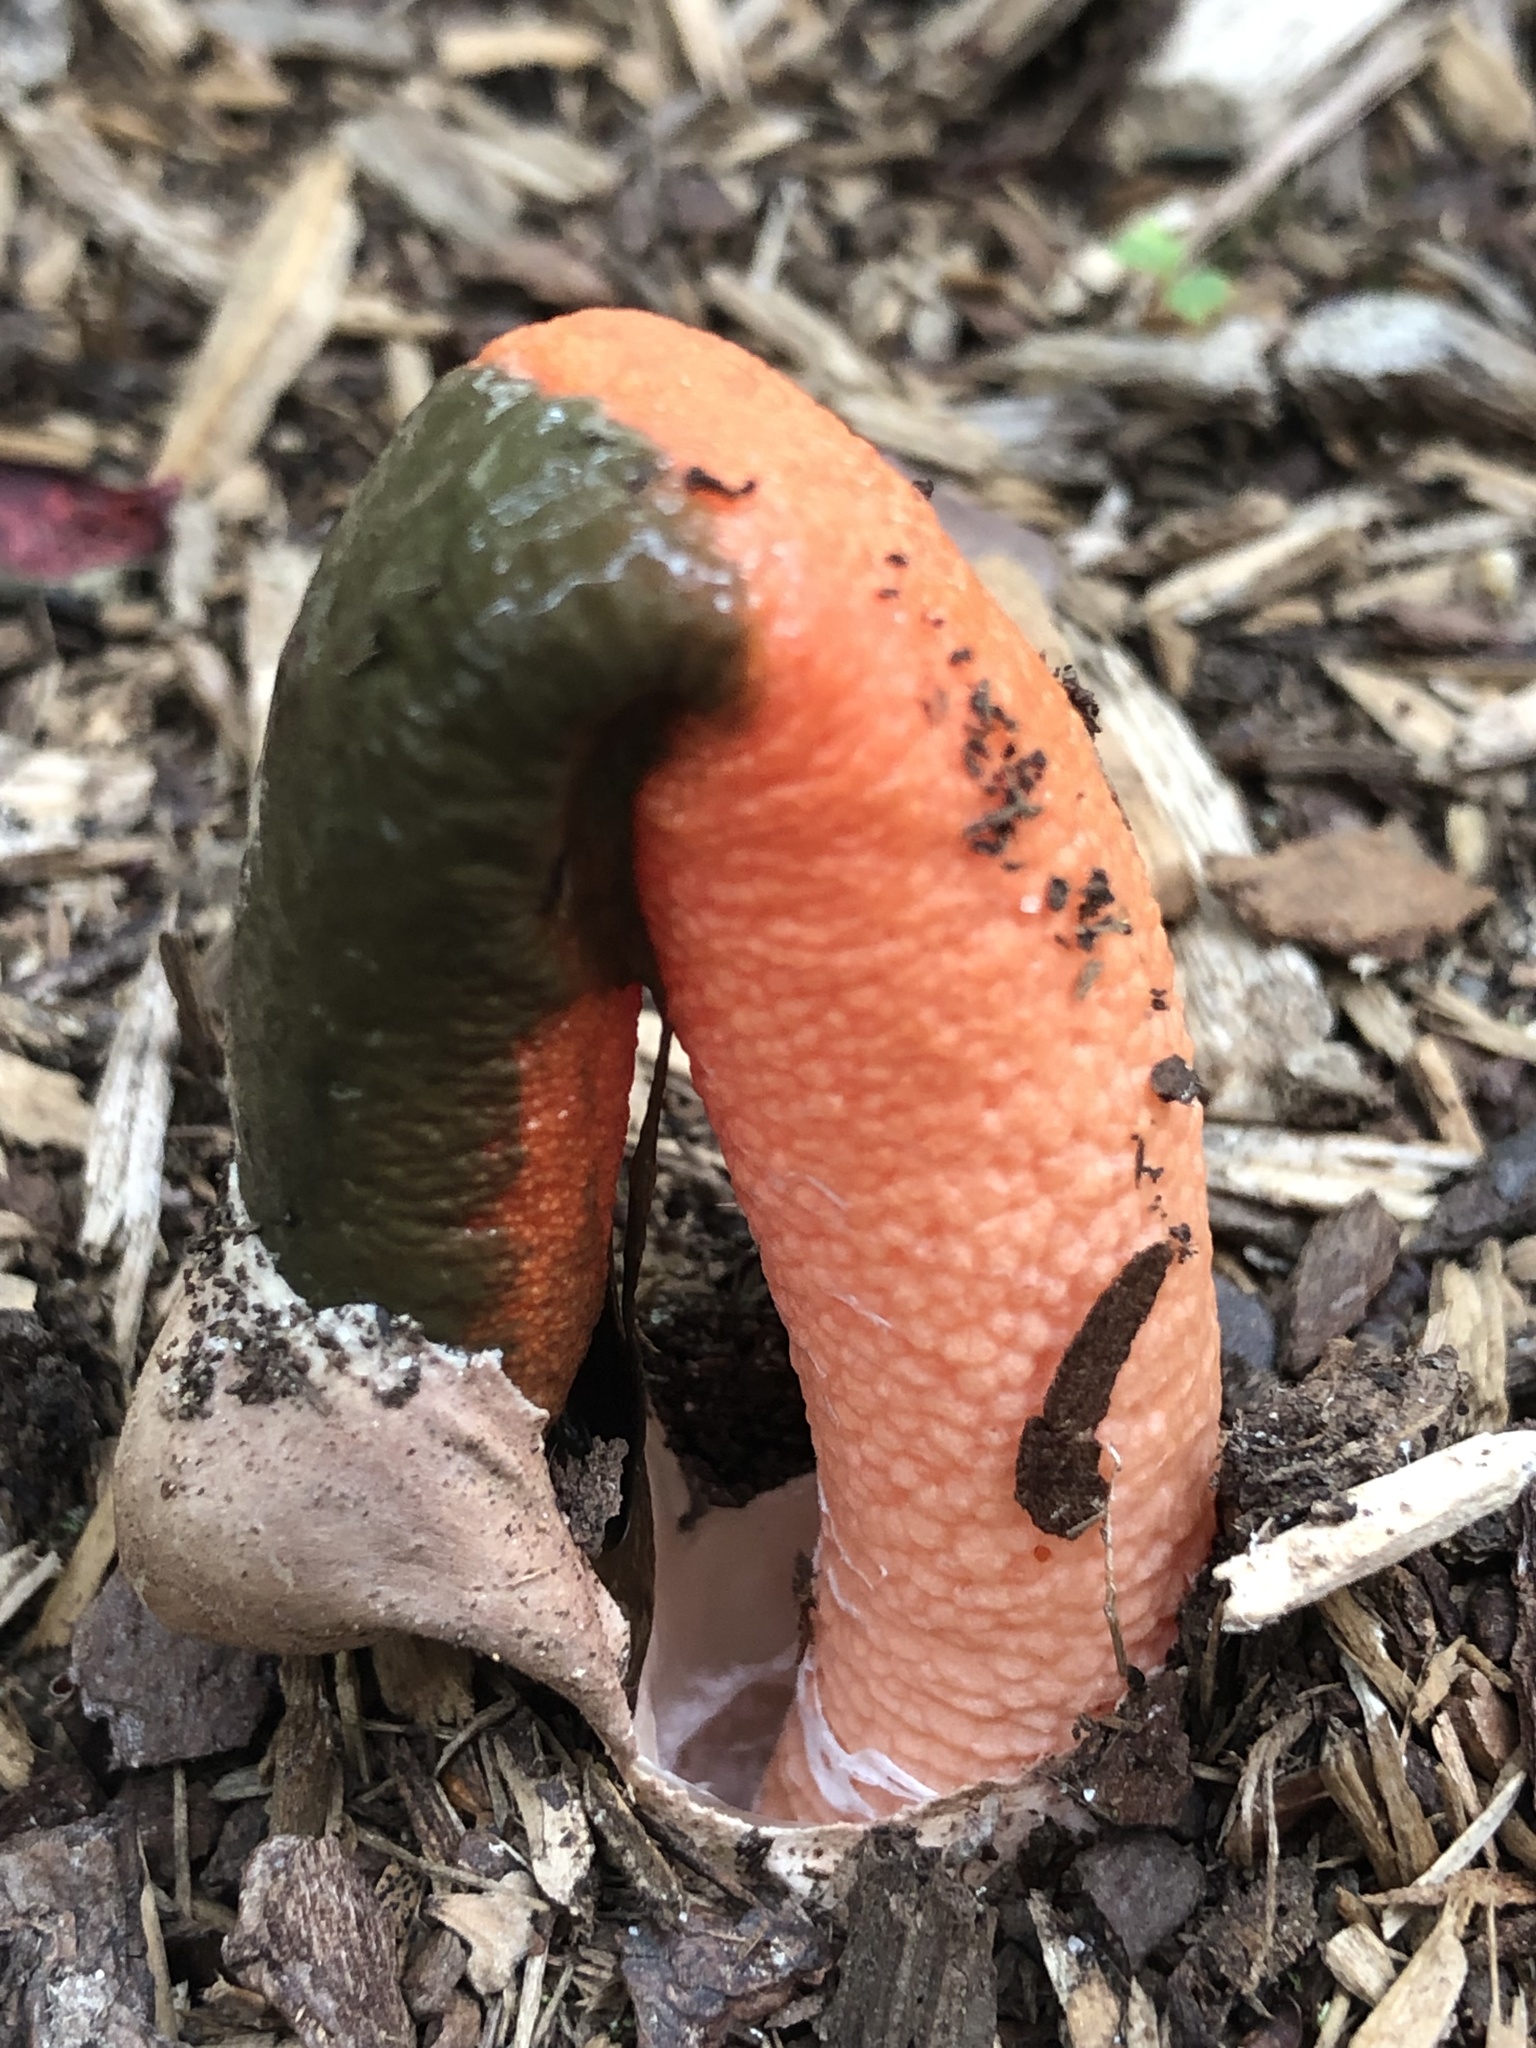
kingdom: Fungi
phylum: Basidiomycota
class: Agaricomycetes
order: Phallales
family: Phallaceae
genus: Mutinus
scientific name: Mutinus elegans
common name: Devil's dipstick
